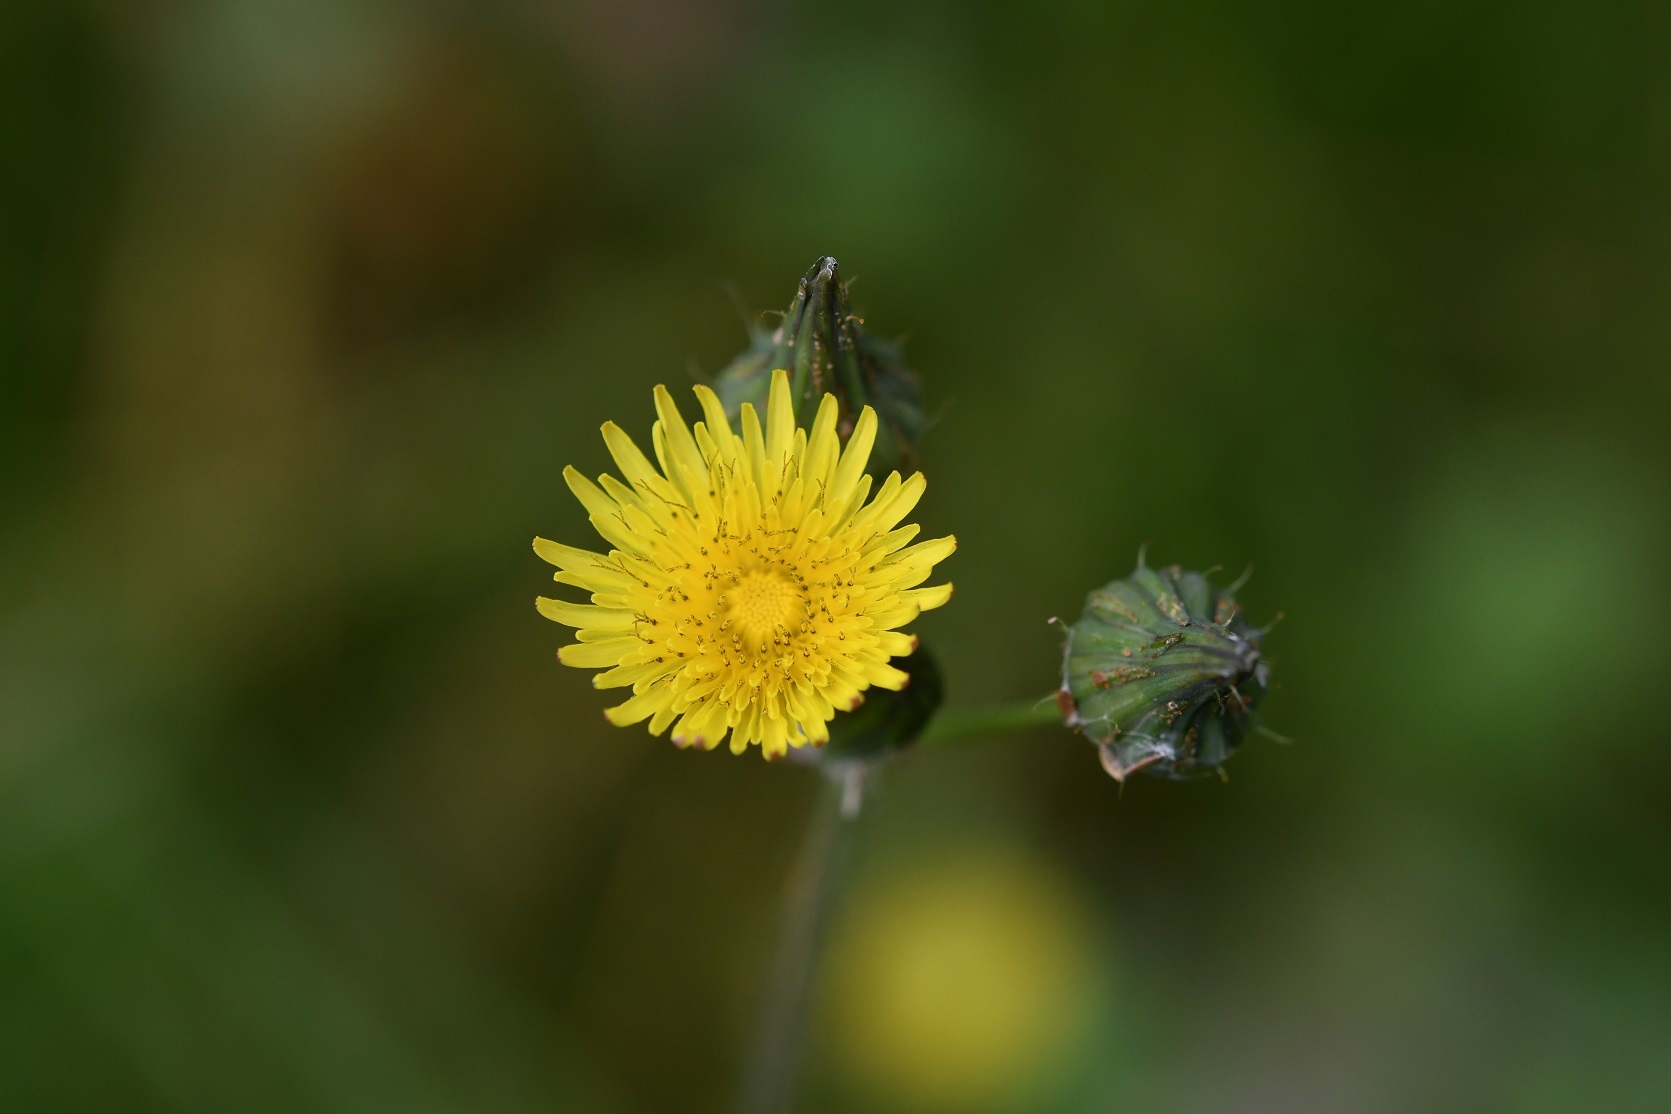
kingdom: Plantae
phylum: Tracheophyta
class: Magnoliopsida
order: Asterales
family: Asteraceae
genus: Sonchus
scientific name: Sonchus oleraceus
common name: Common sowthistle
